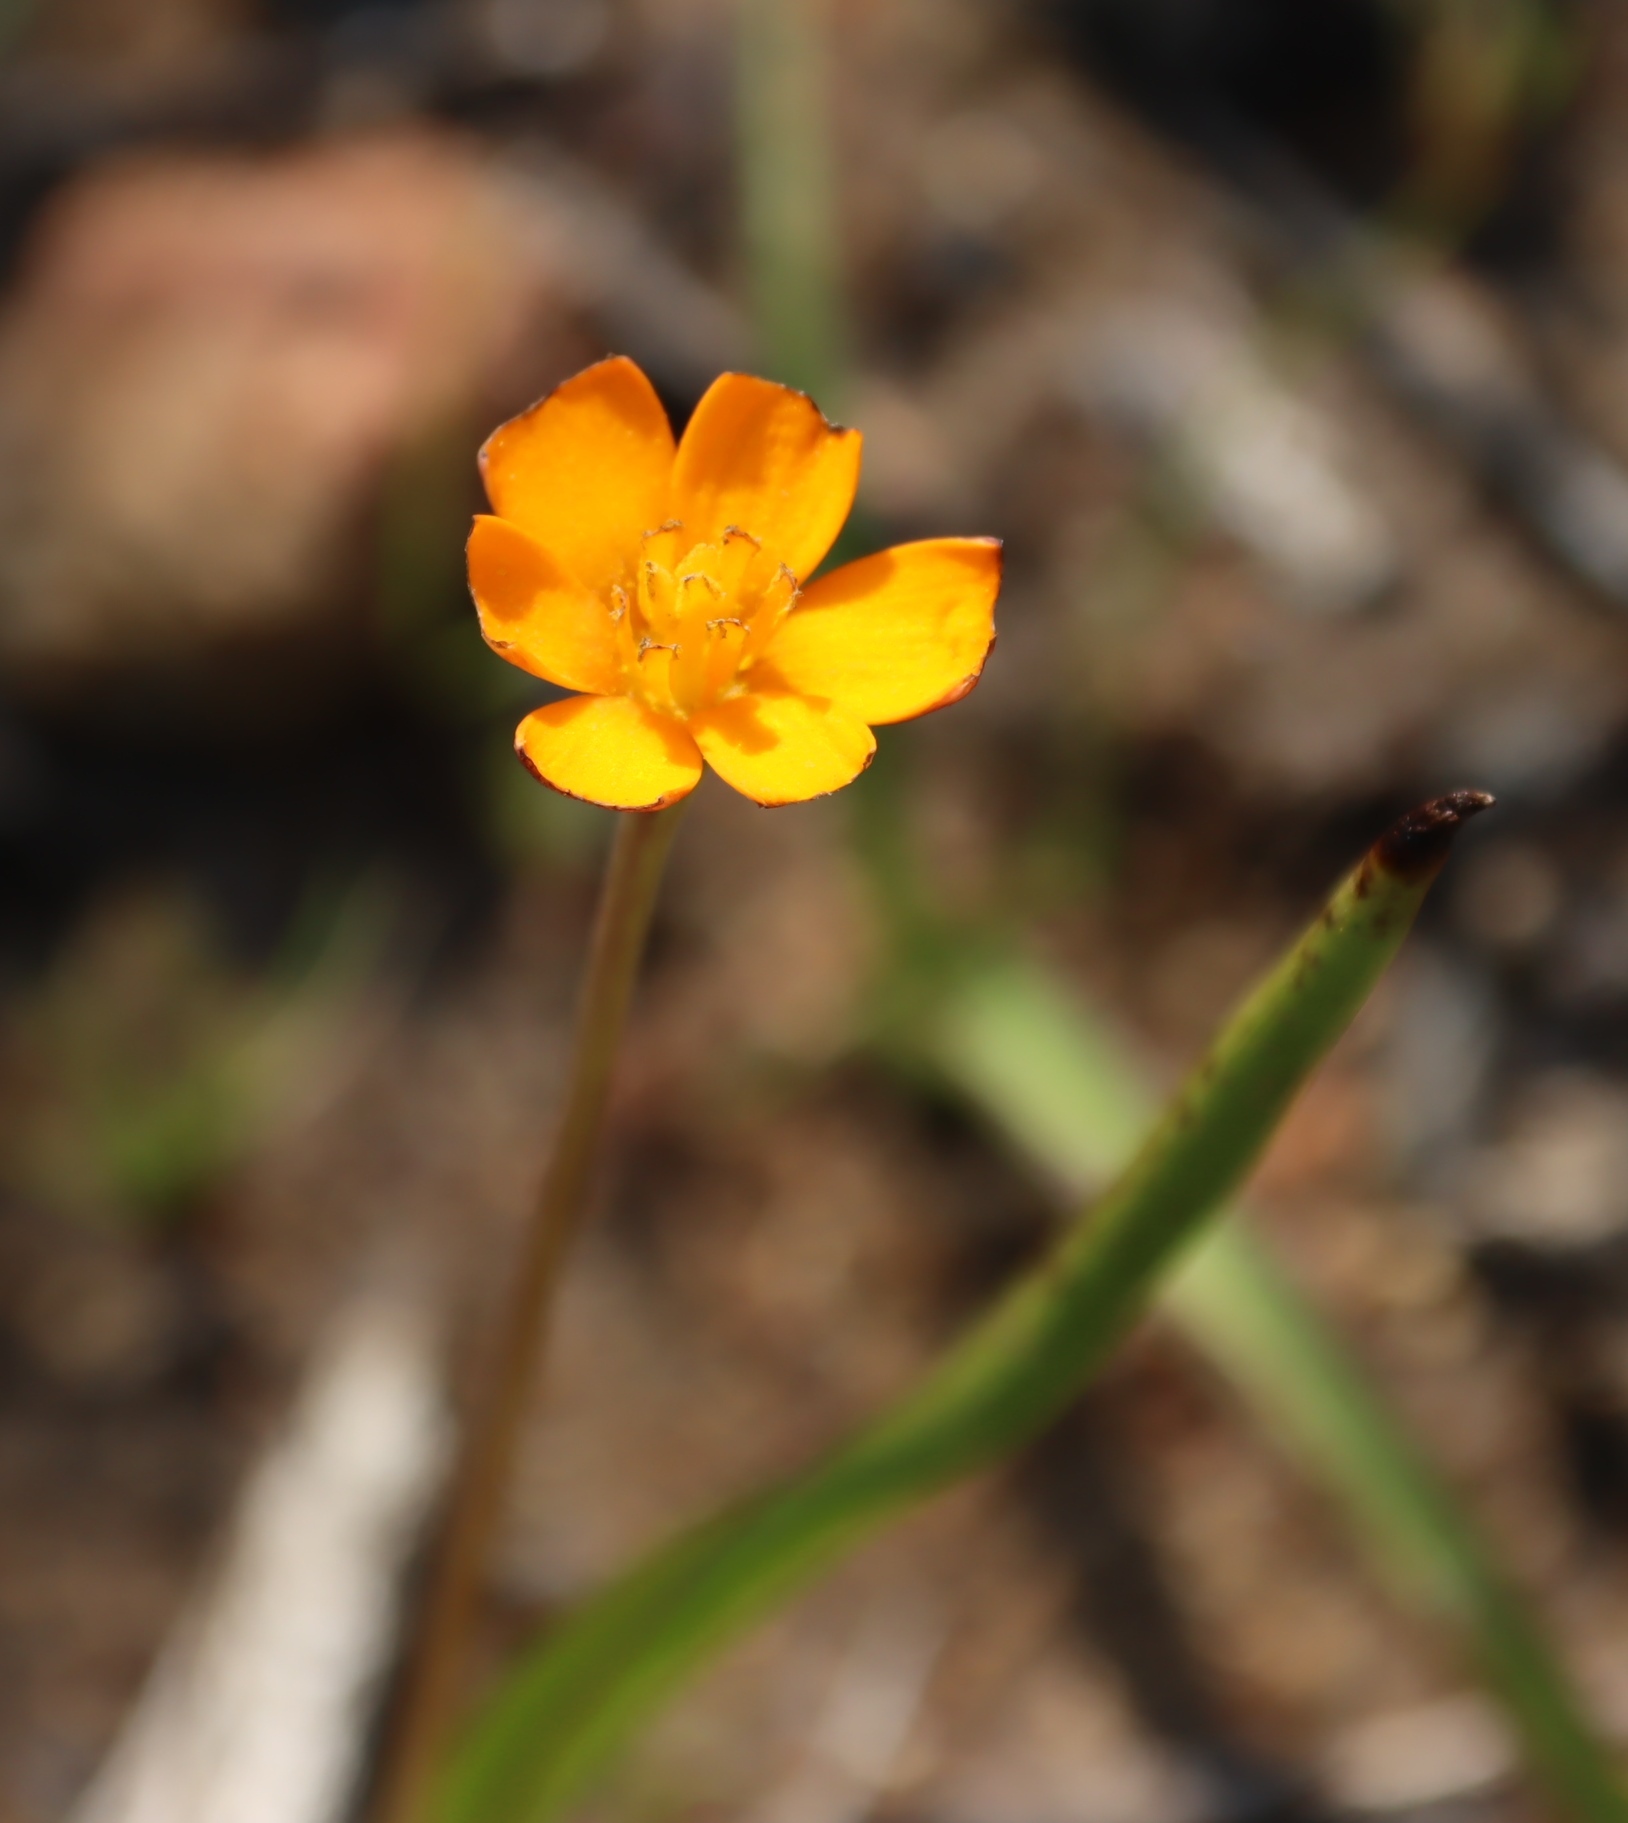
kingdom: Plantae
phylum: Tracheophyta
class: Liliopsida
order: Asparagales
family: Hypoxidaceae
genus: Pauridia
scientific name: Pauridia gracilipes
